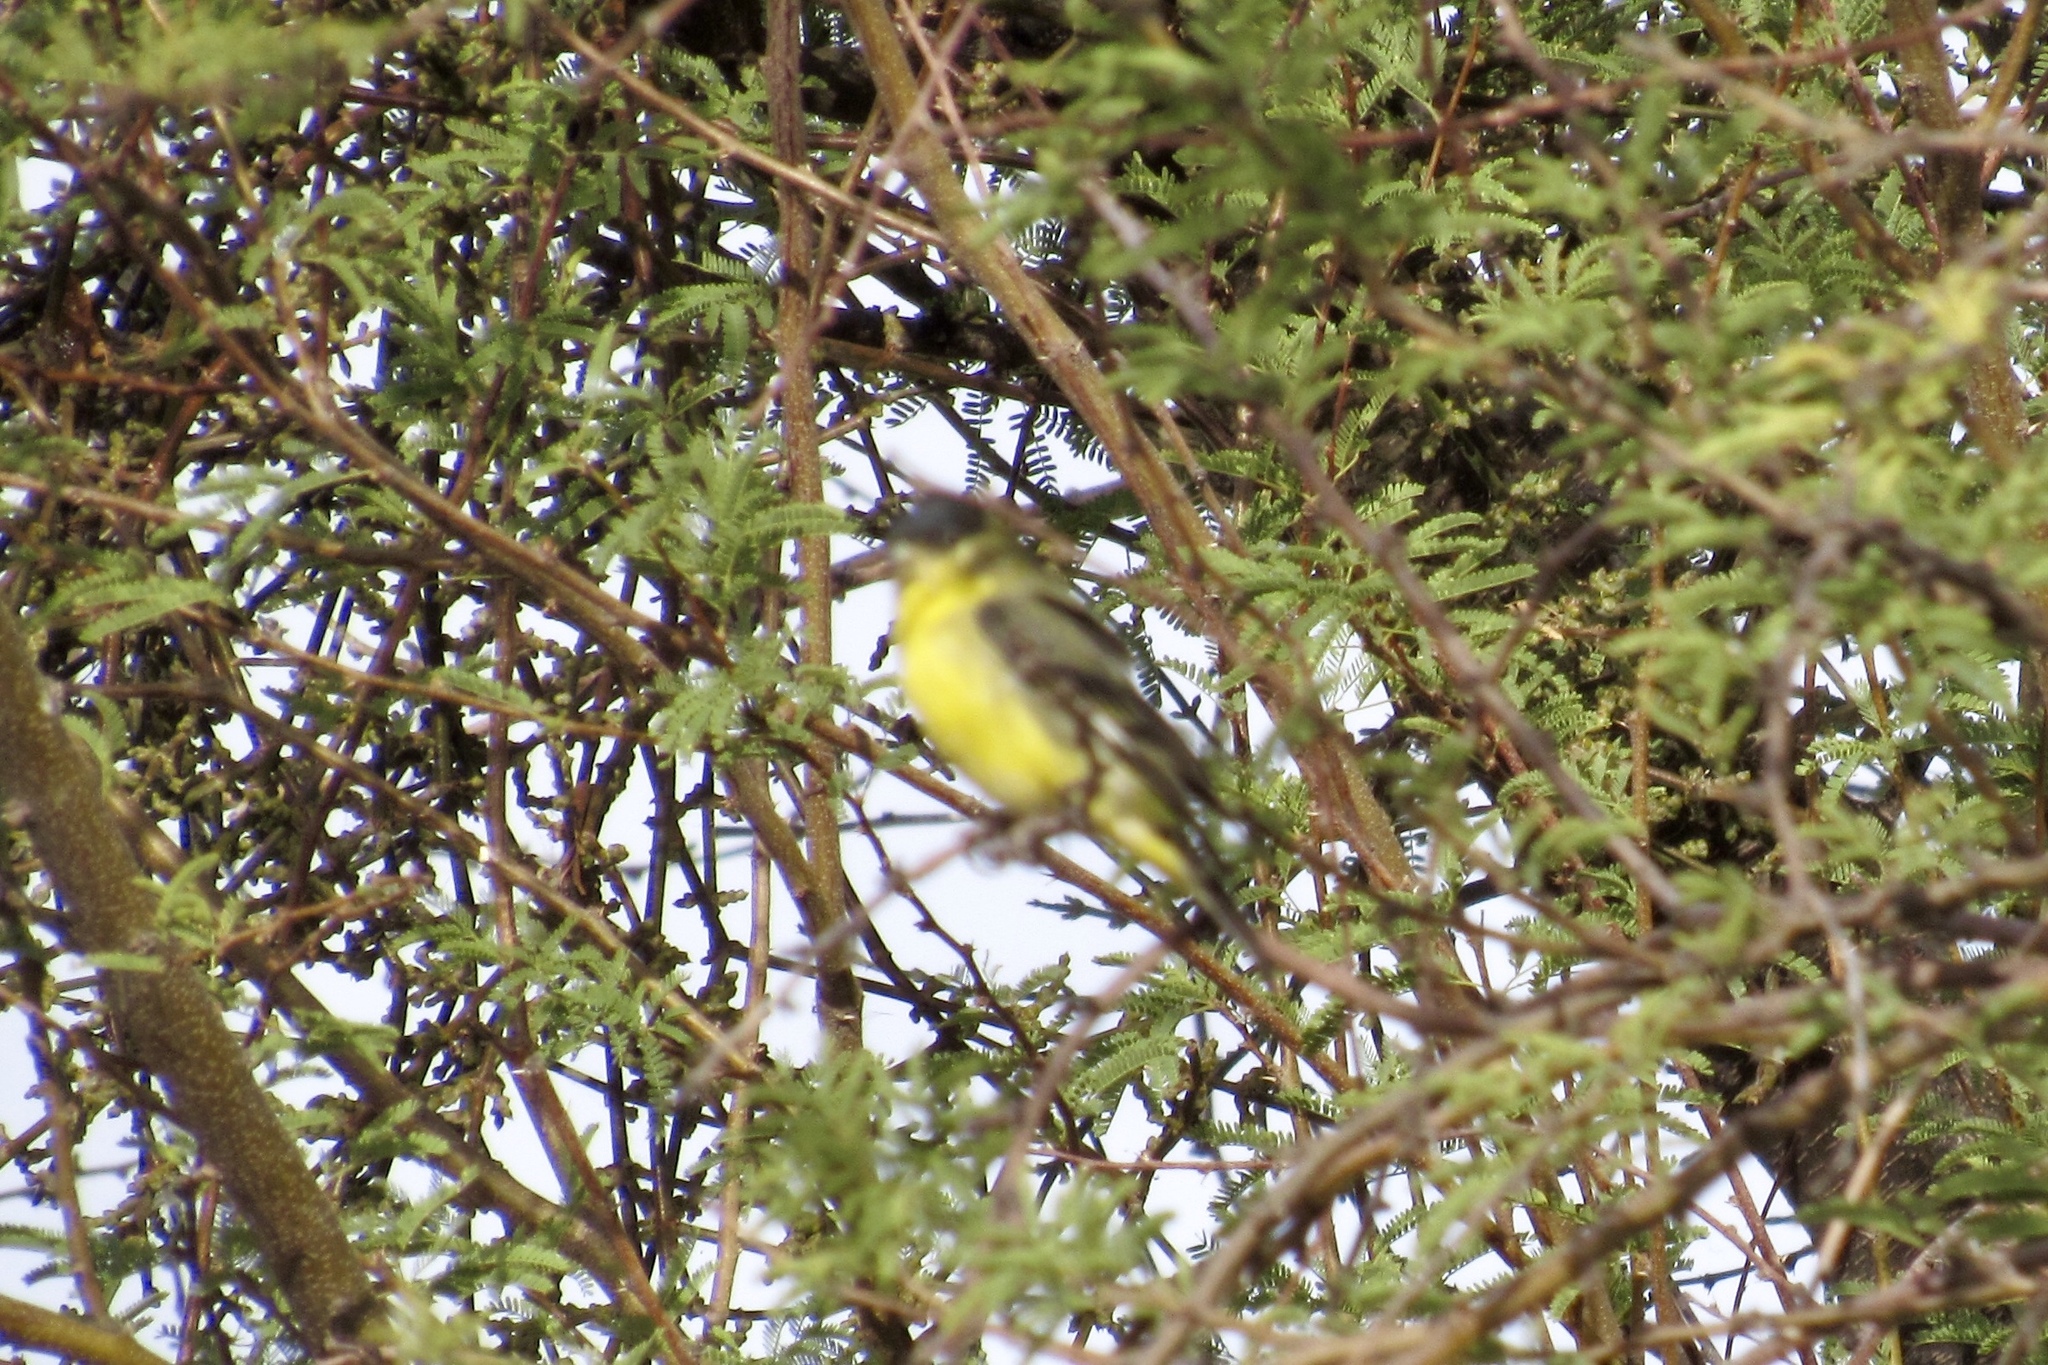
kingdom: Animalia
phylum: Chordata
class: Aves
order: Passeriformes
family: Fringillidae
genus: Spinus
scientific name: Spinus psaltria
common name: Lesser goldfinch
